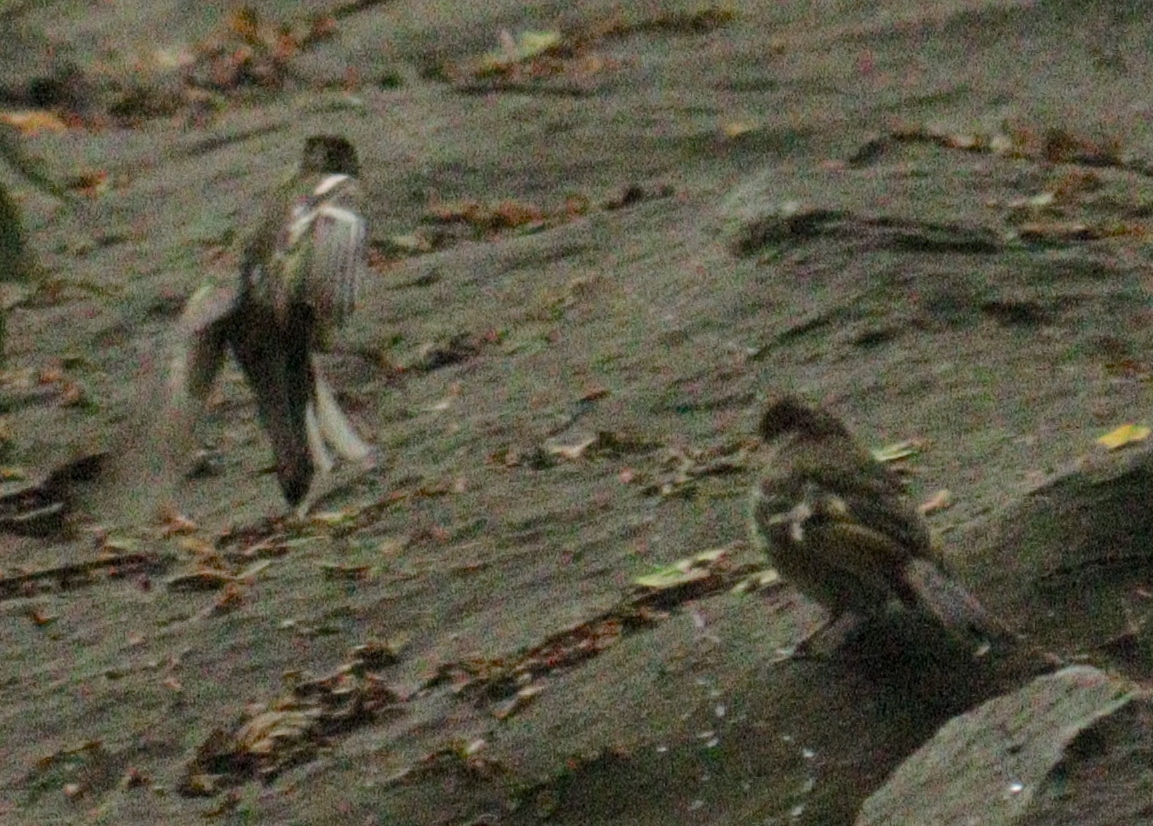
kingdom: Animalia
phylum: Chordata
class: Aves
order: Passeriformes
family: Fringillidae
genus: Fringilla
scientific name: Fringilla coelebs
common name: Common chaffinch
